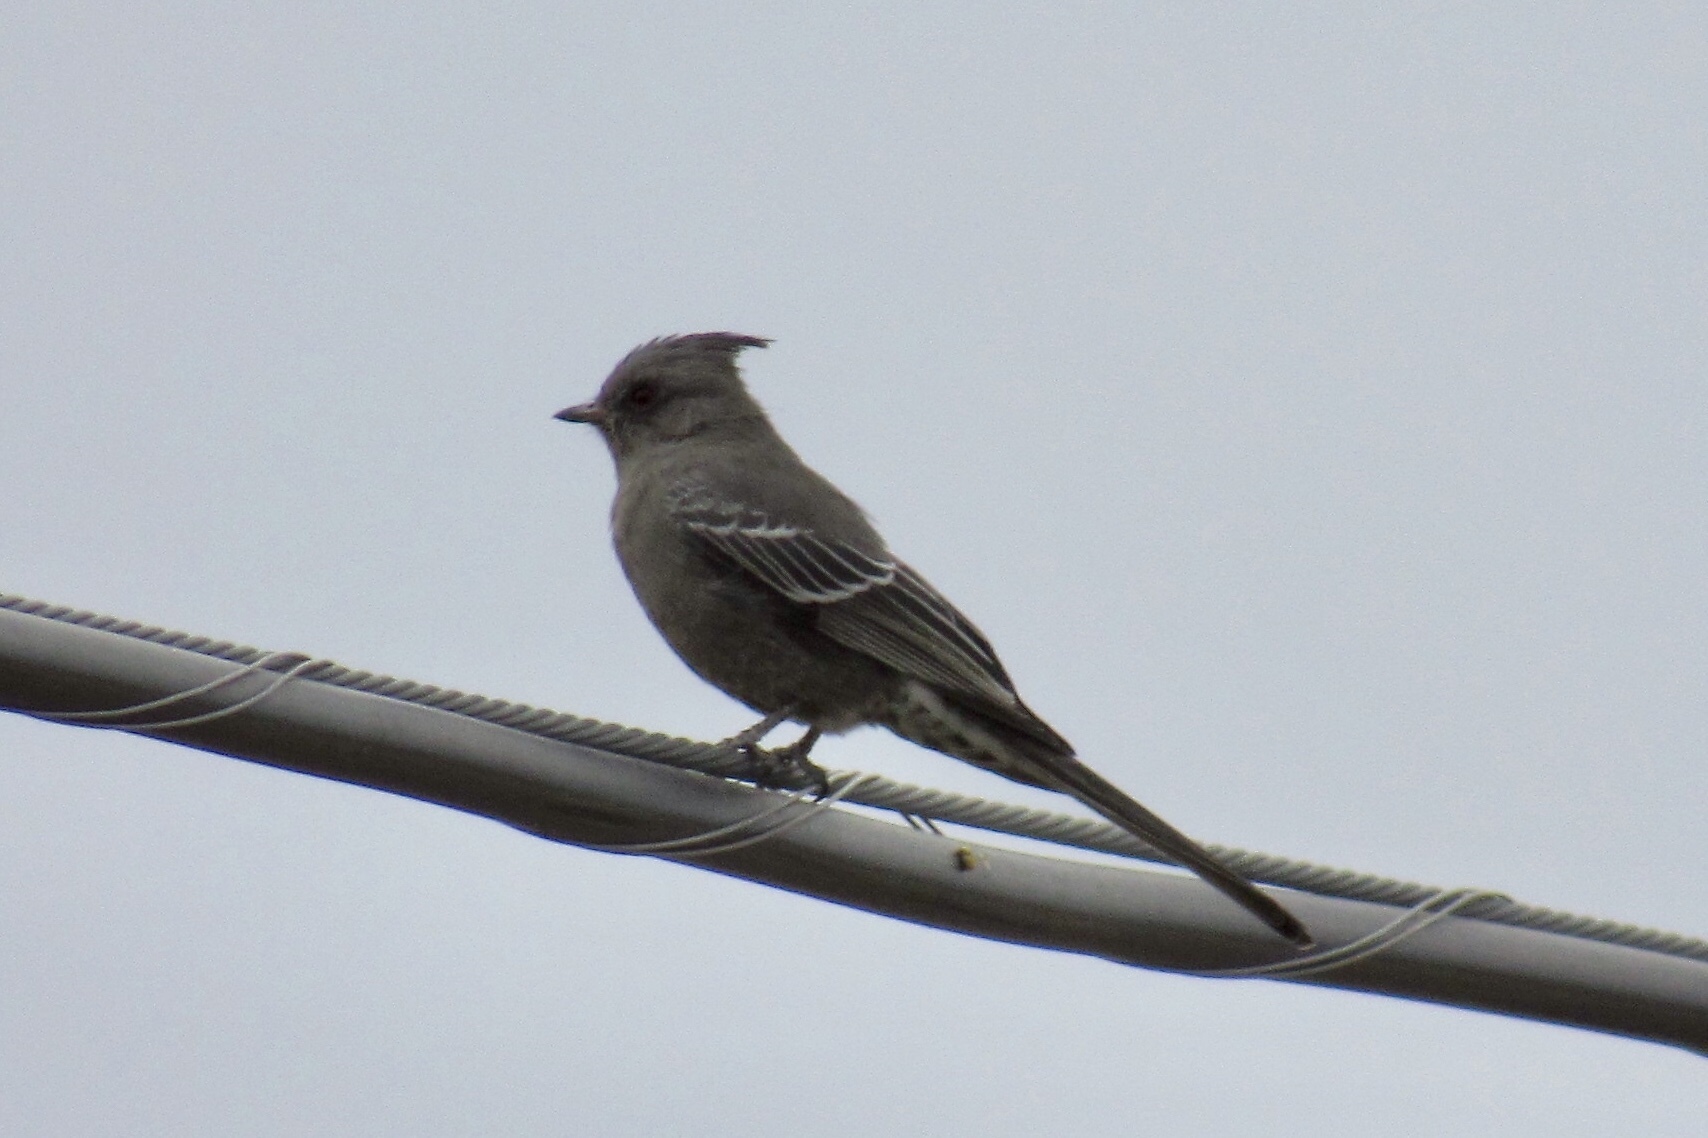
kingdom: Animalia
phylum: Chordata
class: Aves
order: Passeriformes
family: Ptilogonatidae
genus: Phainopepla
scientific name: Phainopepla nitens
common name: Phainopepla
